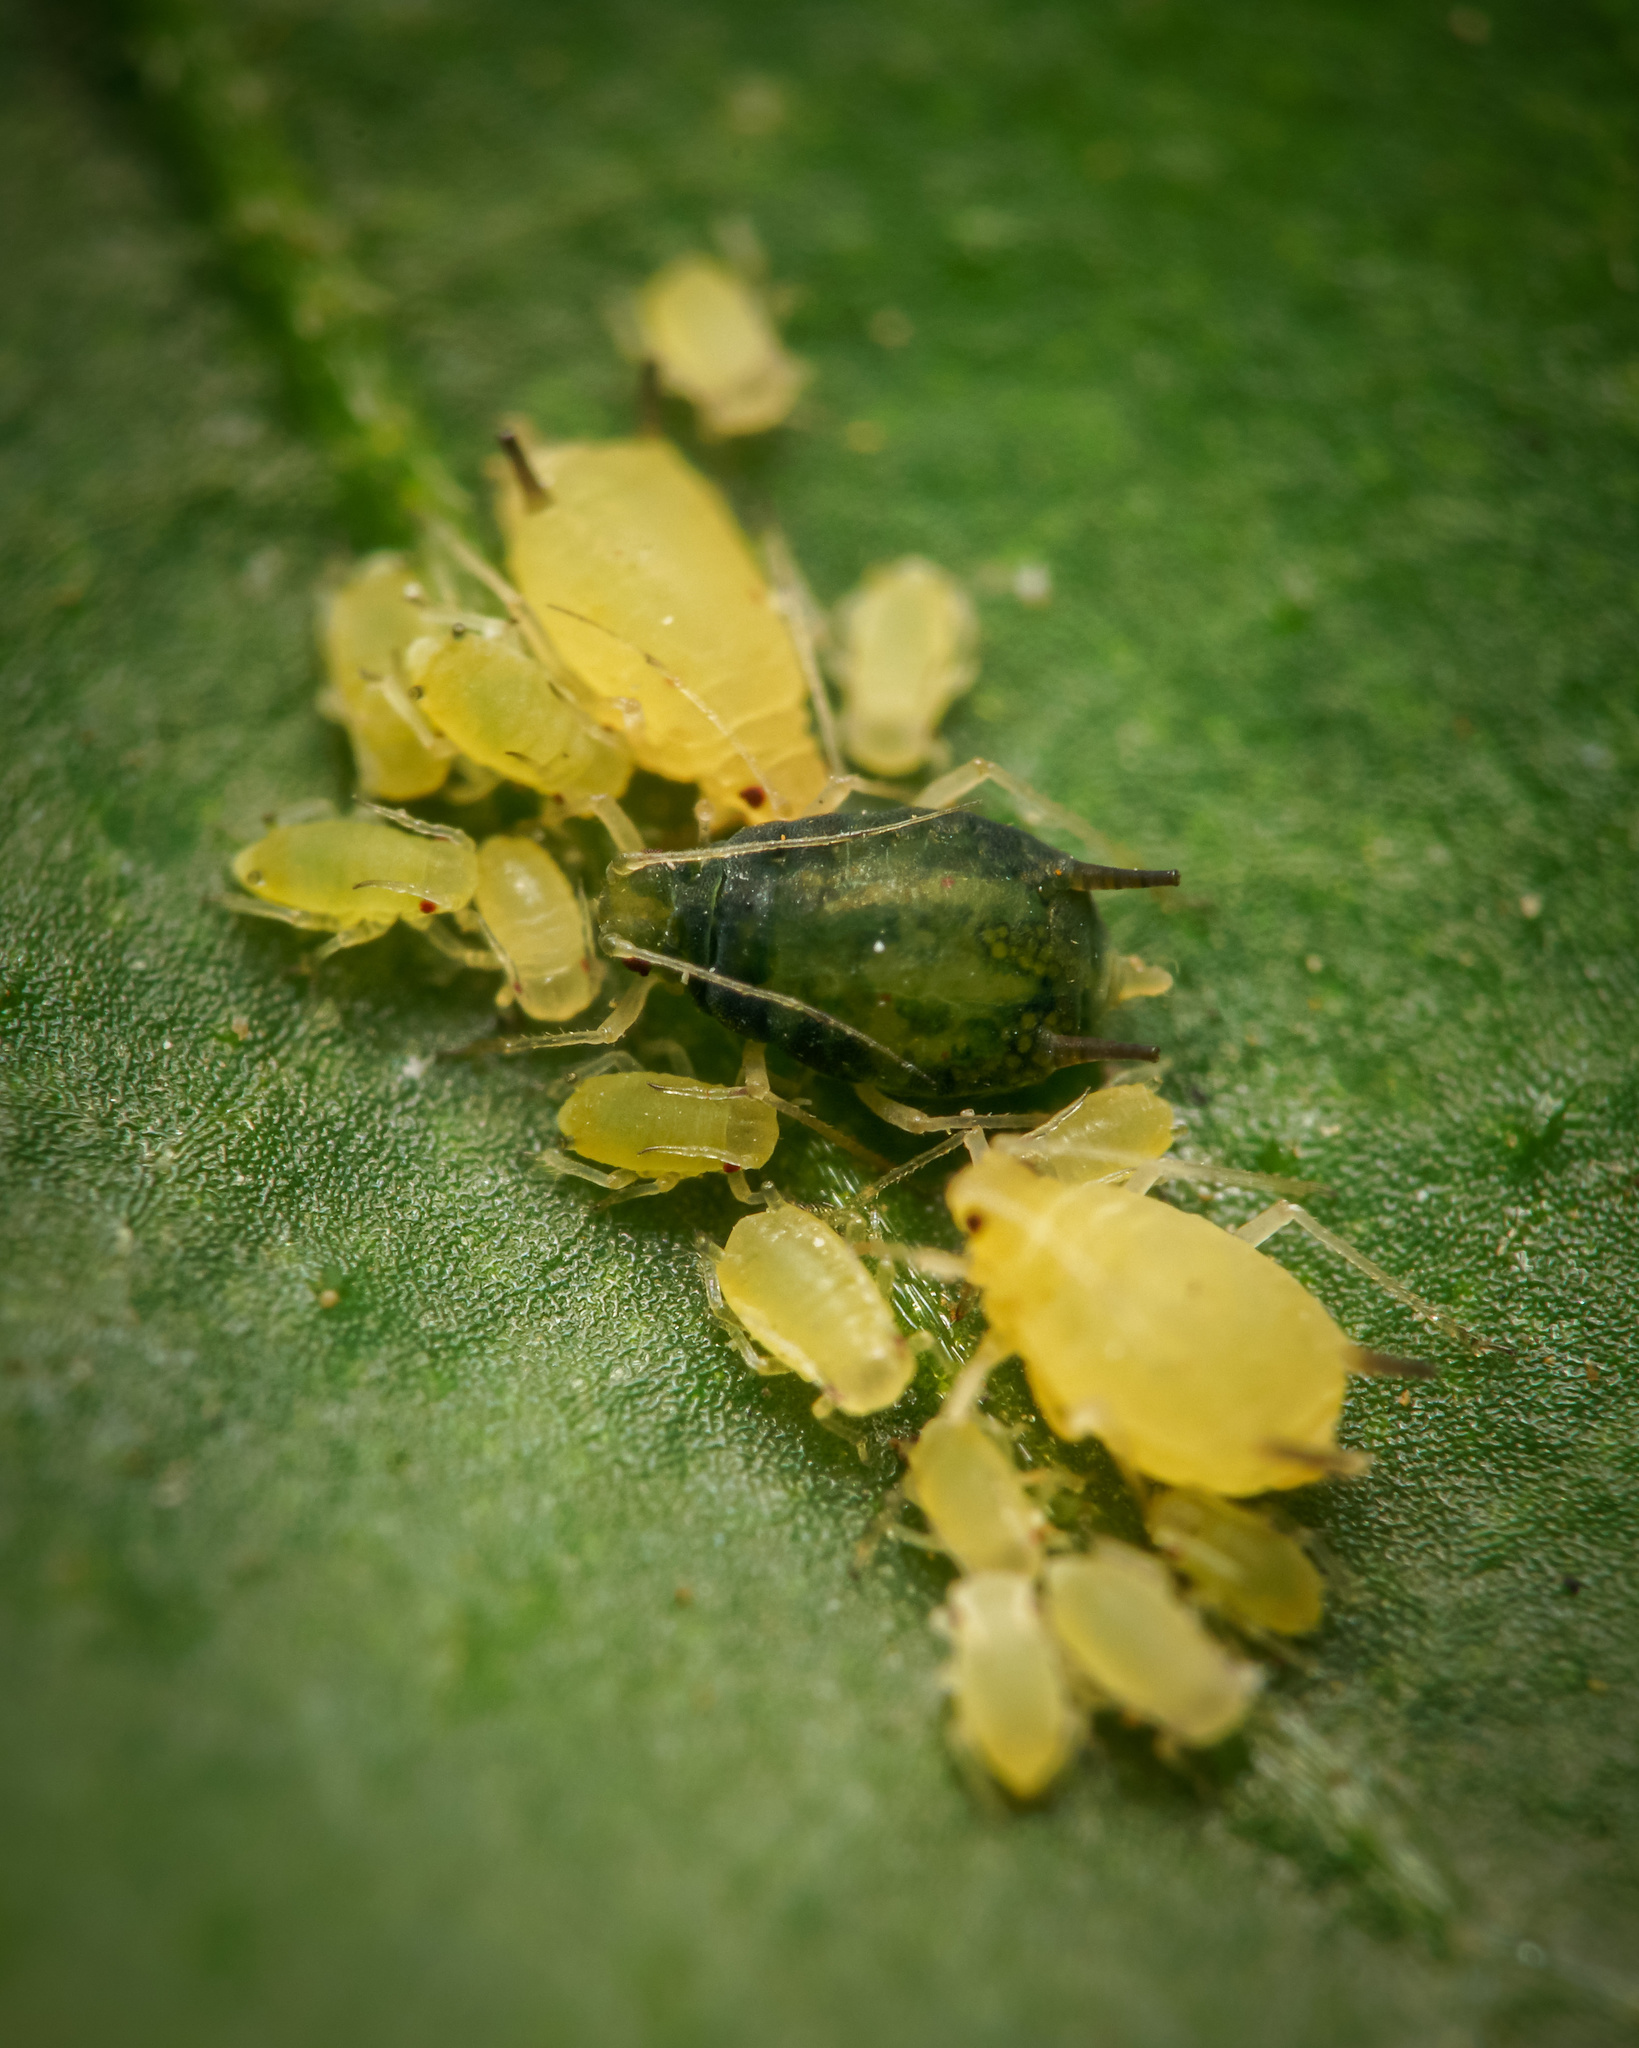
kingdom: Animalia
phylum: Arthropoda
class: Insecta
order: Hemiptera
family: Aphididae
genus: Aphis
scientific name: Aphis gossypii
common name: Melon aphid
